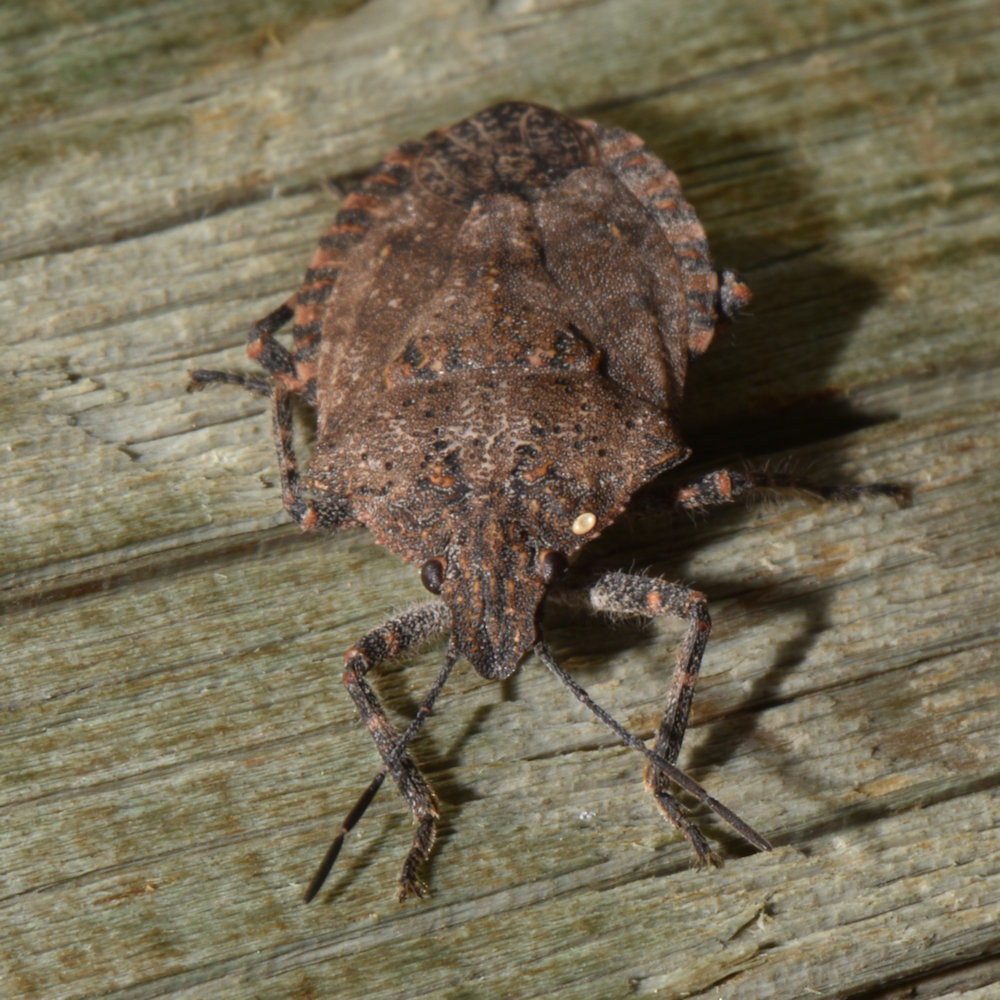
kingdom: Animalia
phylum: Arthropoda
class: Insecta
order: Hemiptera
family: Pentatomidae
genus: Brochymena
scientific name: Brochymena quadripustulata
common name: Four-humped stink bug
